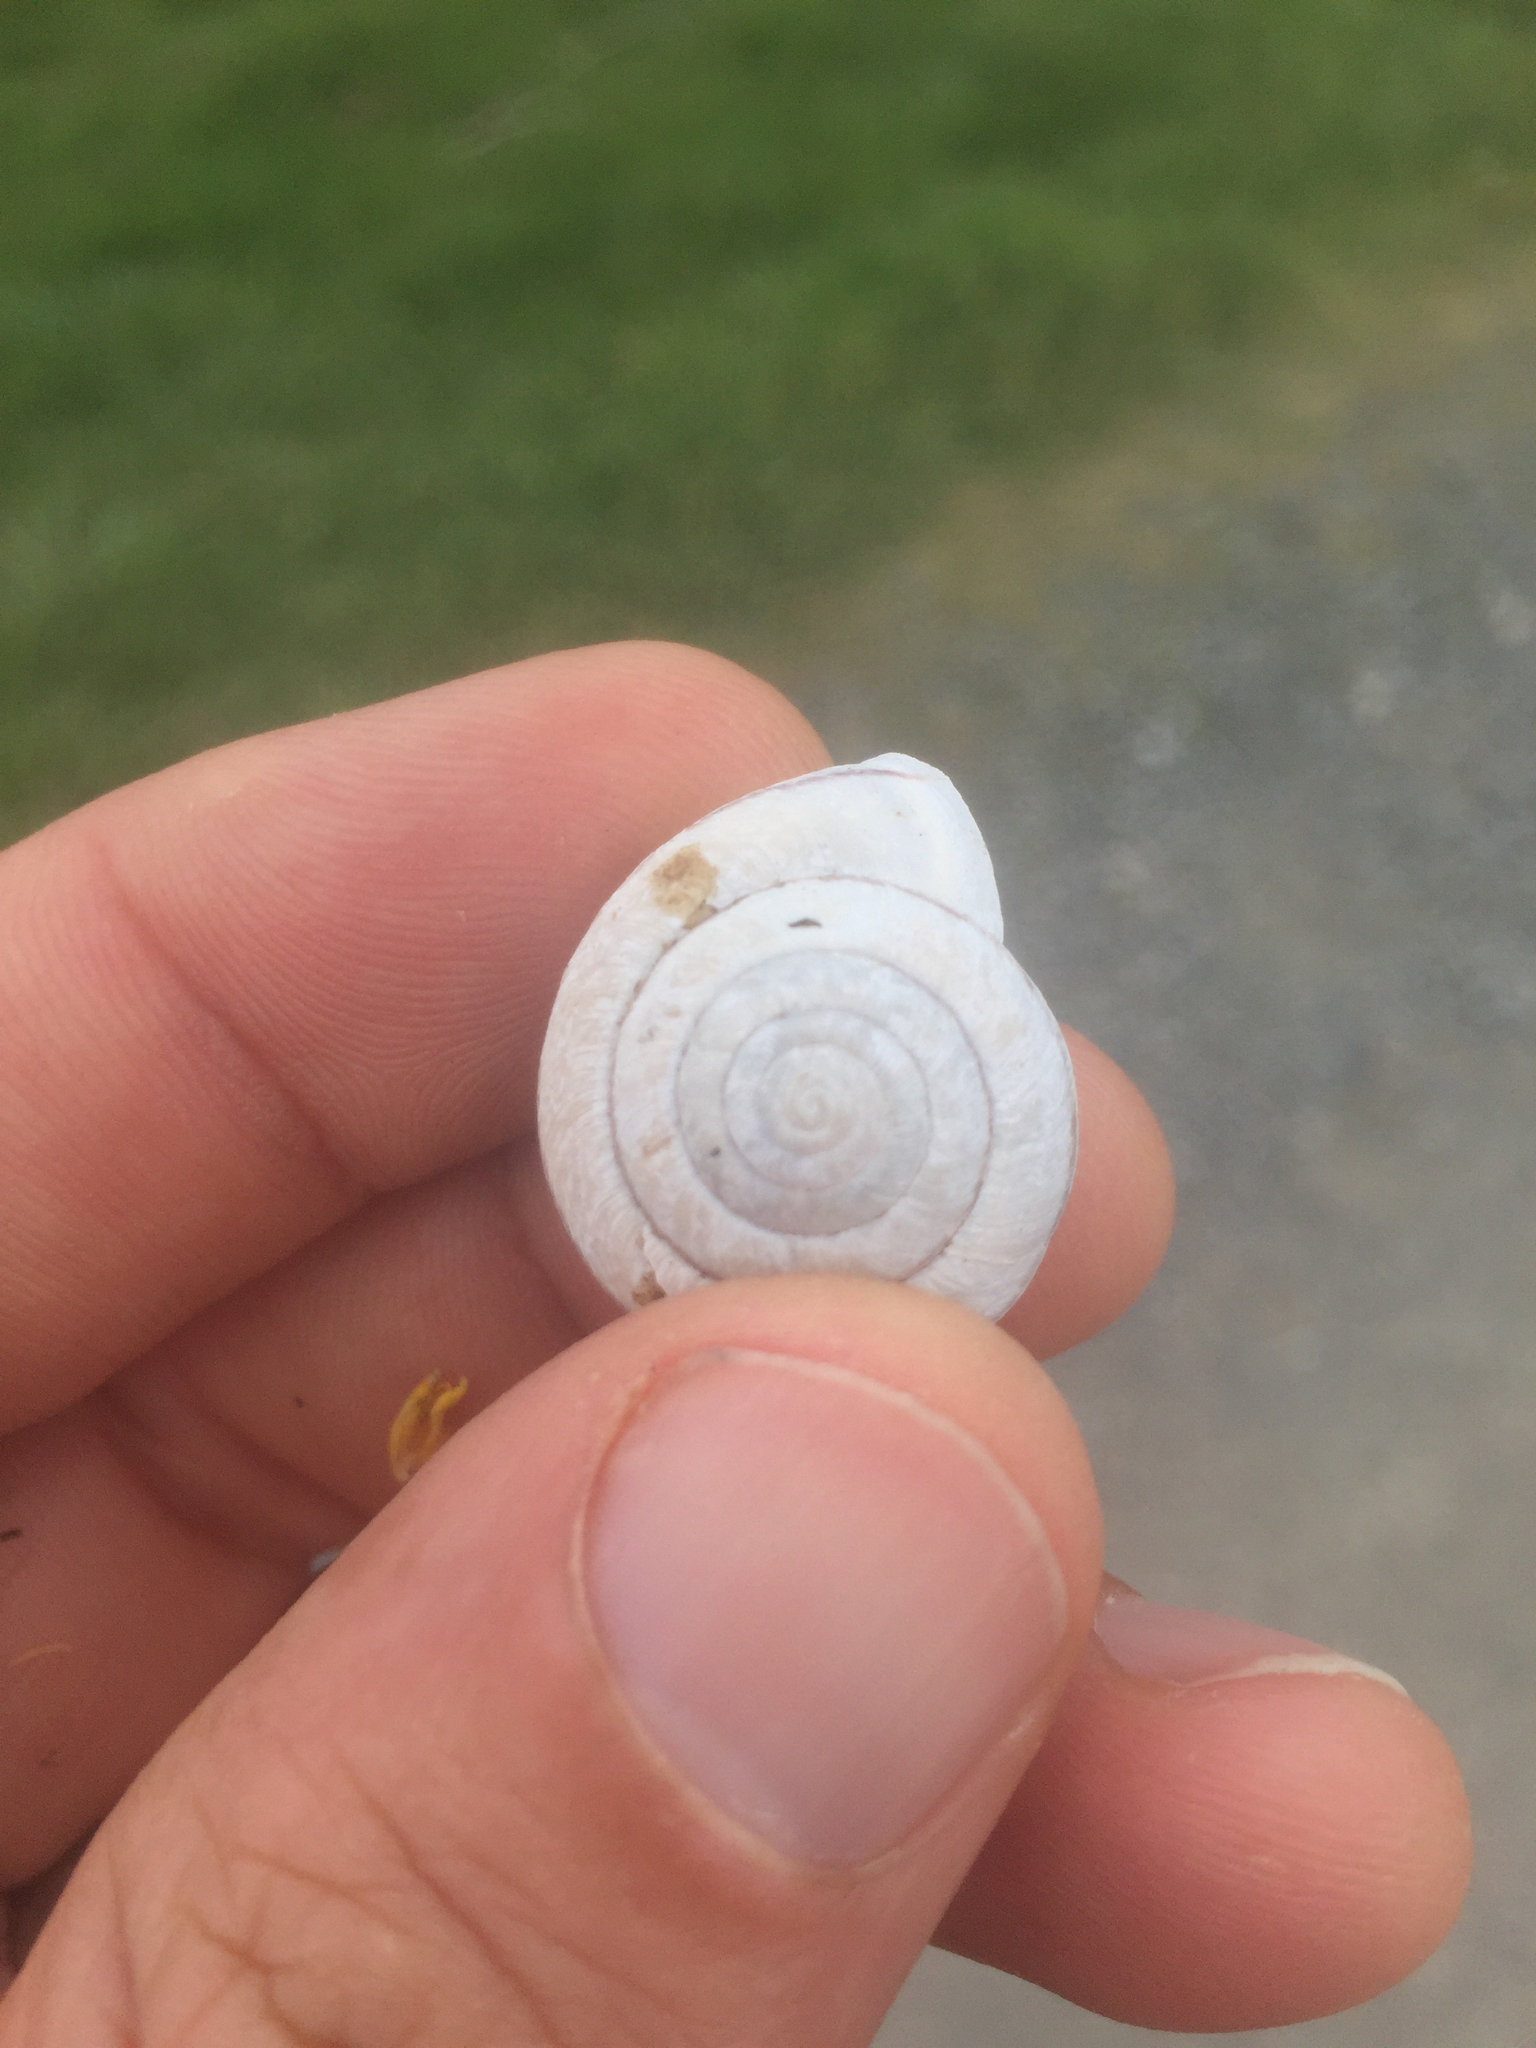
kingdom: Animalia
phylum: Mollusca
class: Gastropoda
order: Stylommatophora
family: Xanthonychidae
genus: Helminthoglypta
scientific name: Helminthoglypta stiversiana
